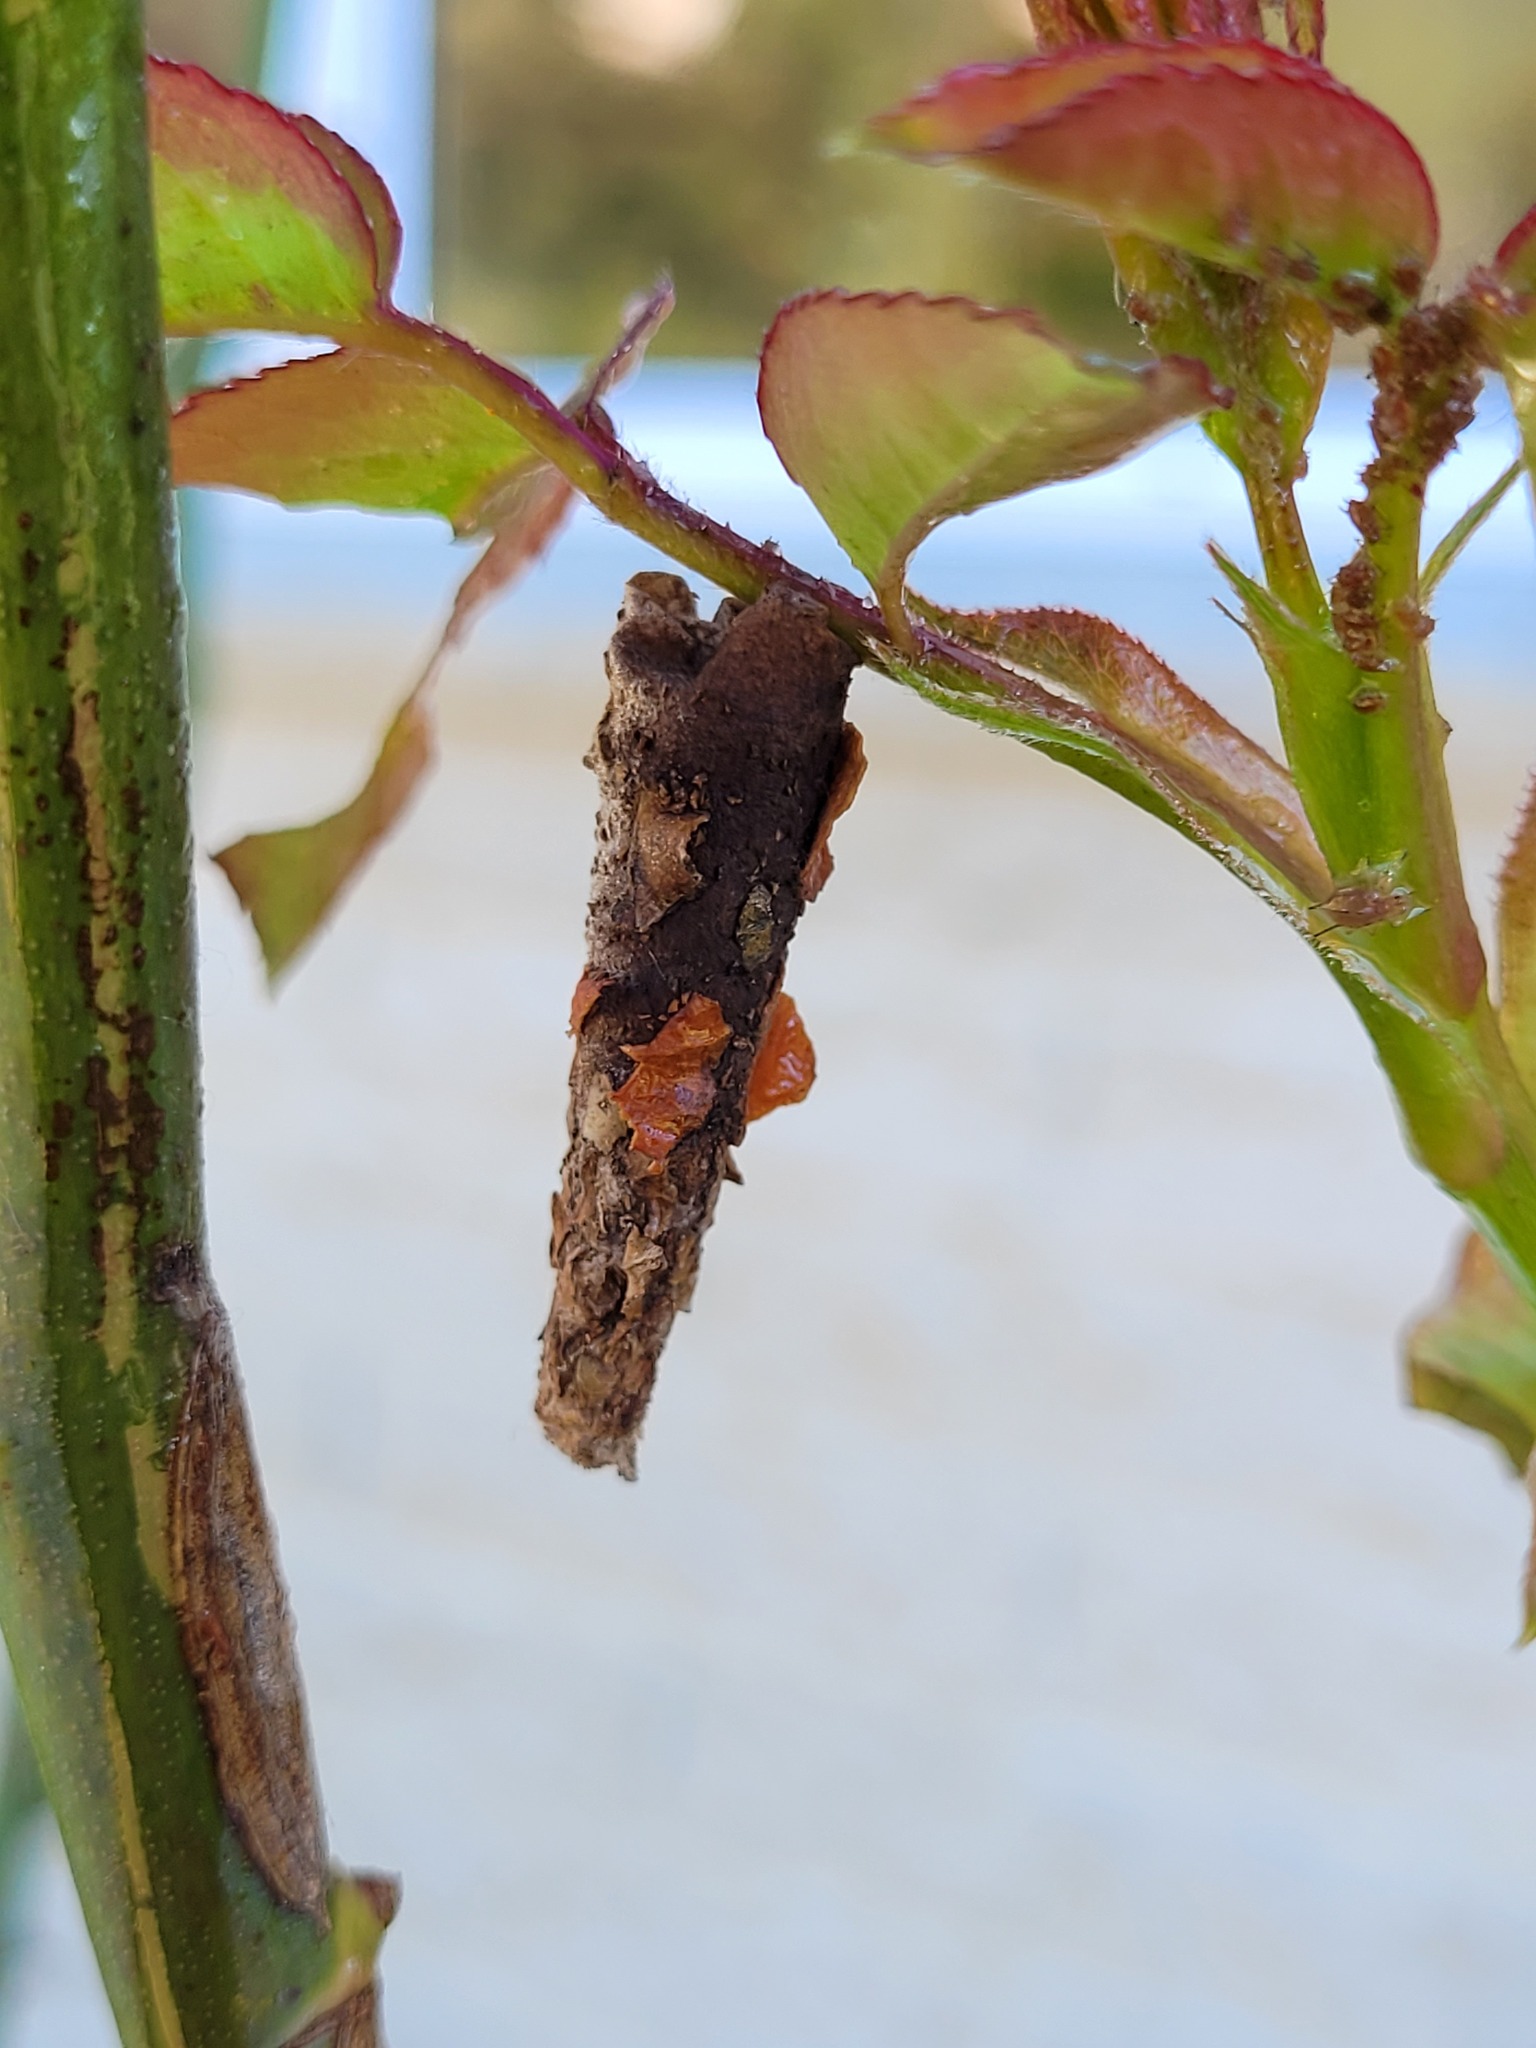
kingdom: Animalia
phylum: Arthropoda
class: Insecta
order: Lepidoptera
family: Psychidae
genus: Liothula
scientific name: Liothula omnivora
